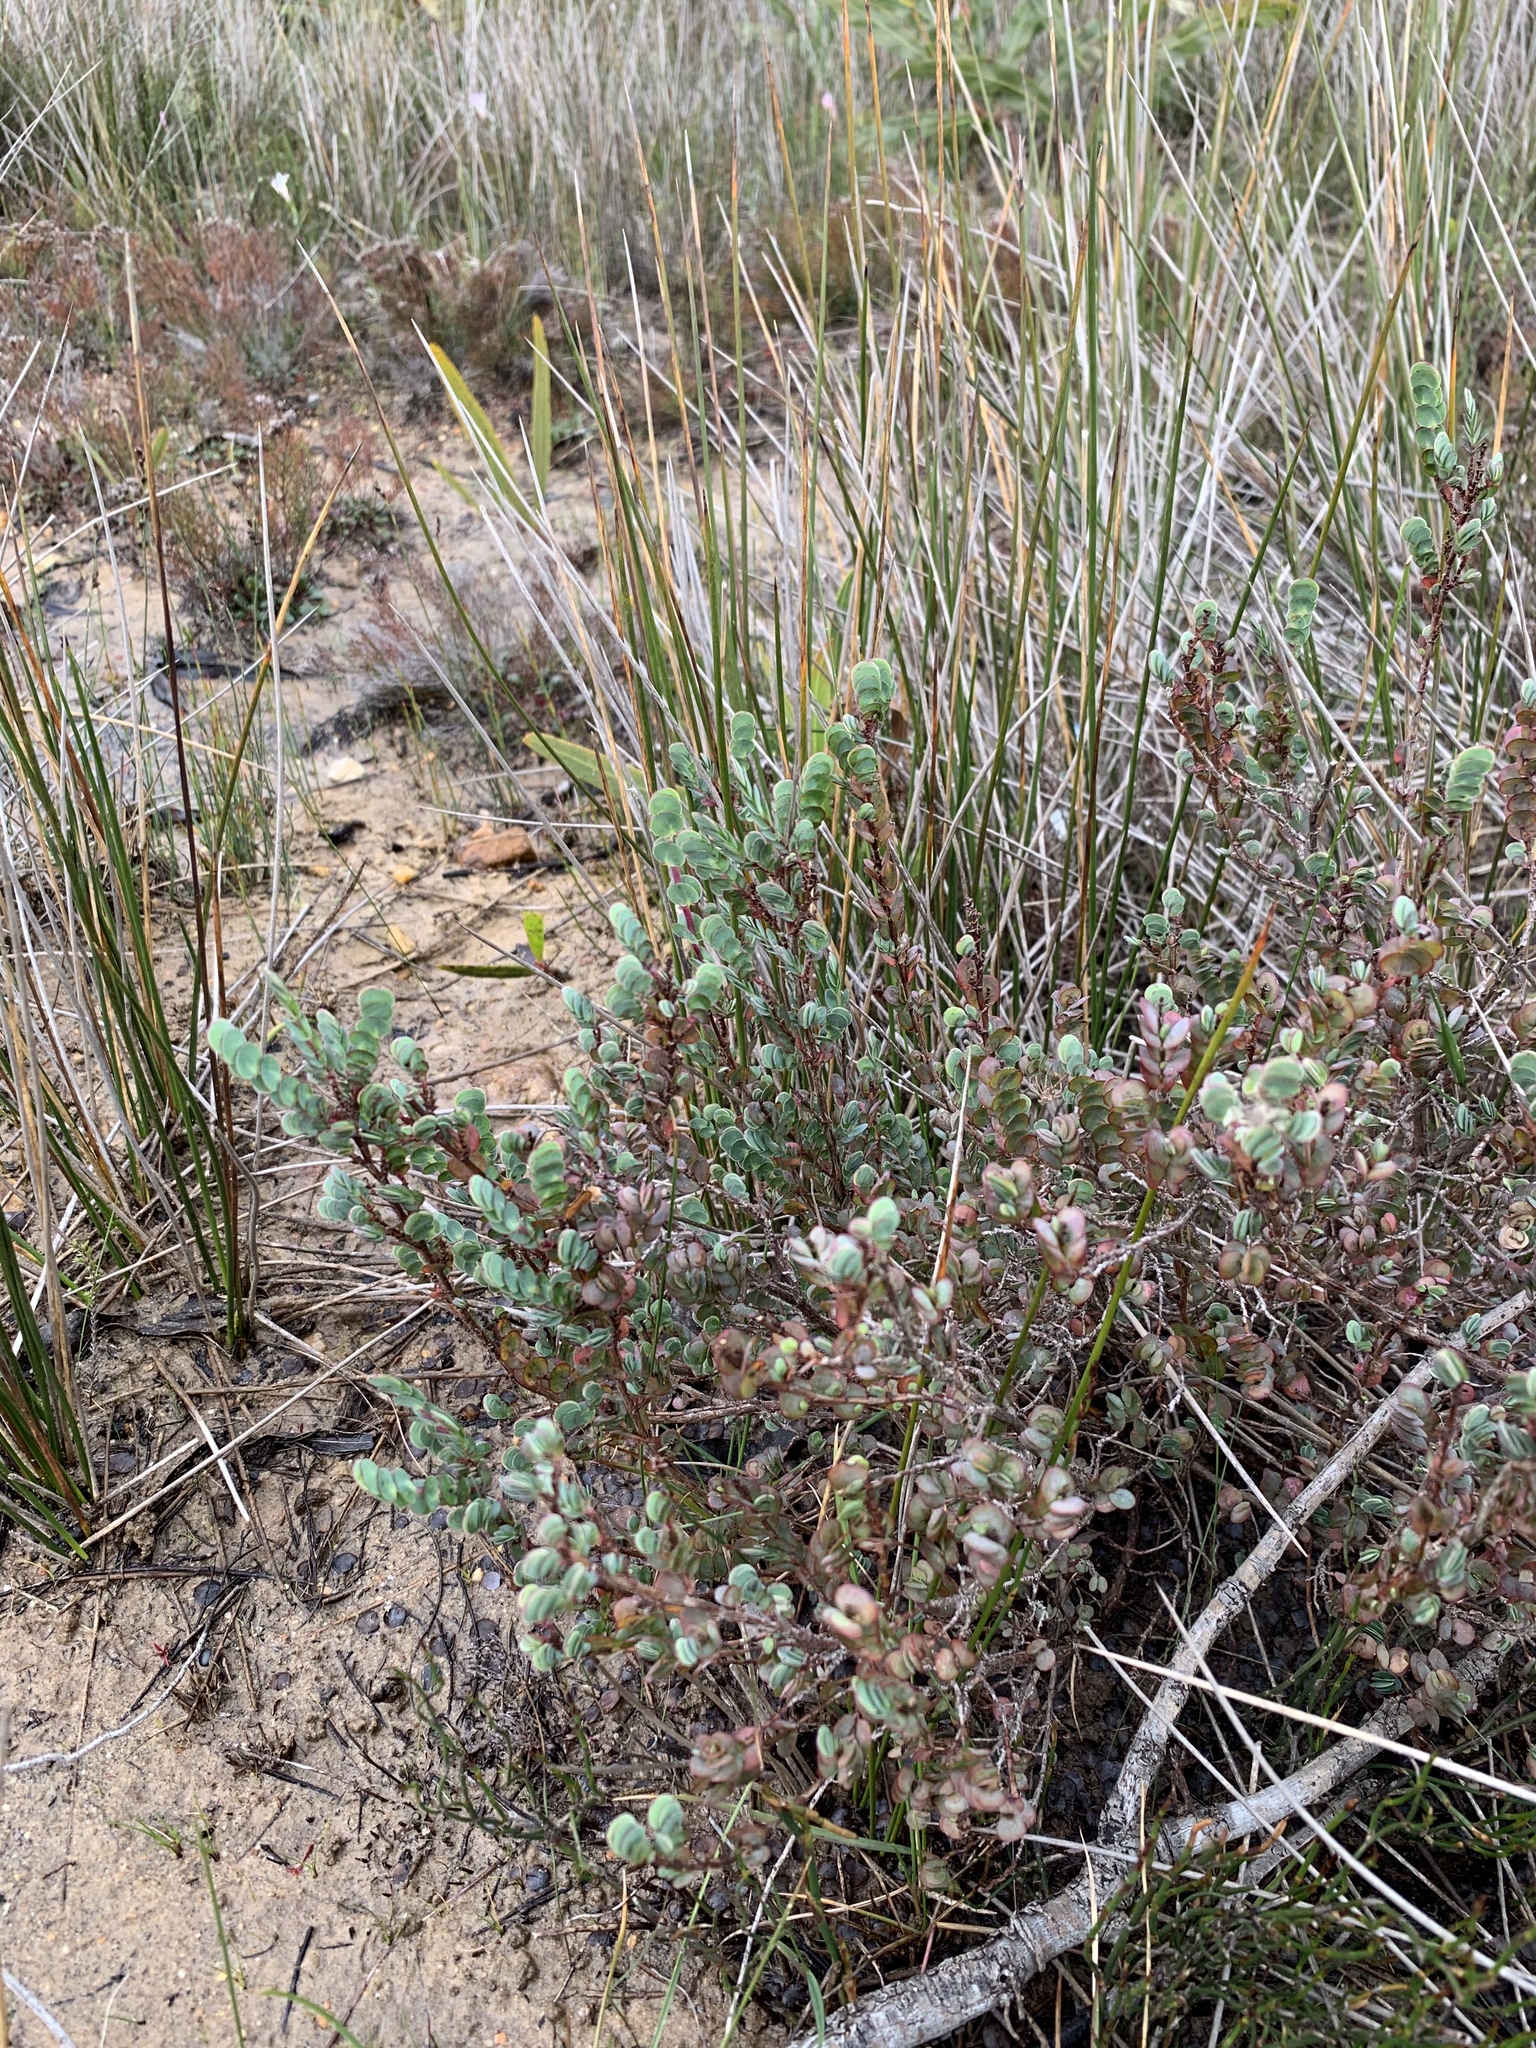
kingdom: Plantae
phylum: Tracheophyta
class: Magnoliopsida
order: Rosales
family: Rosaceae
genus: Cliffortia
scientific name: Cliffortia phyllanthoides
